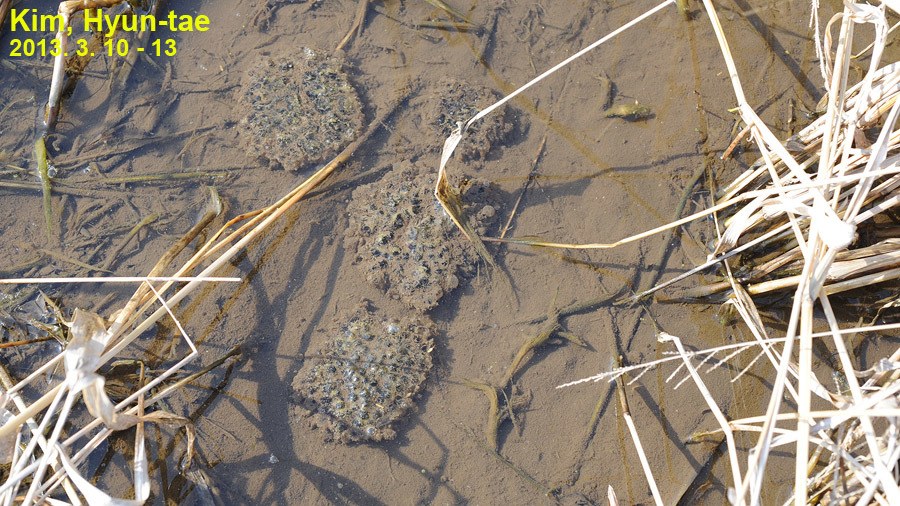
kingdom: Animalia
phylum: Chordata
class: Amphibia
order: Anura
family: Ranidae
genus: Rana
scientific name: Rana coreana
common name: Korean brown frog
